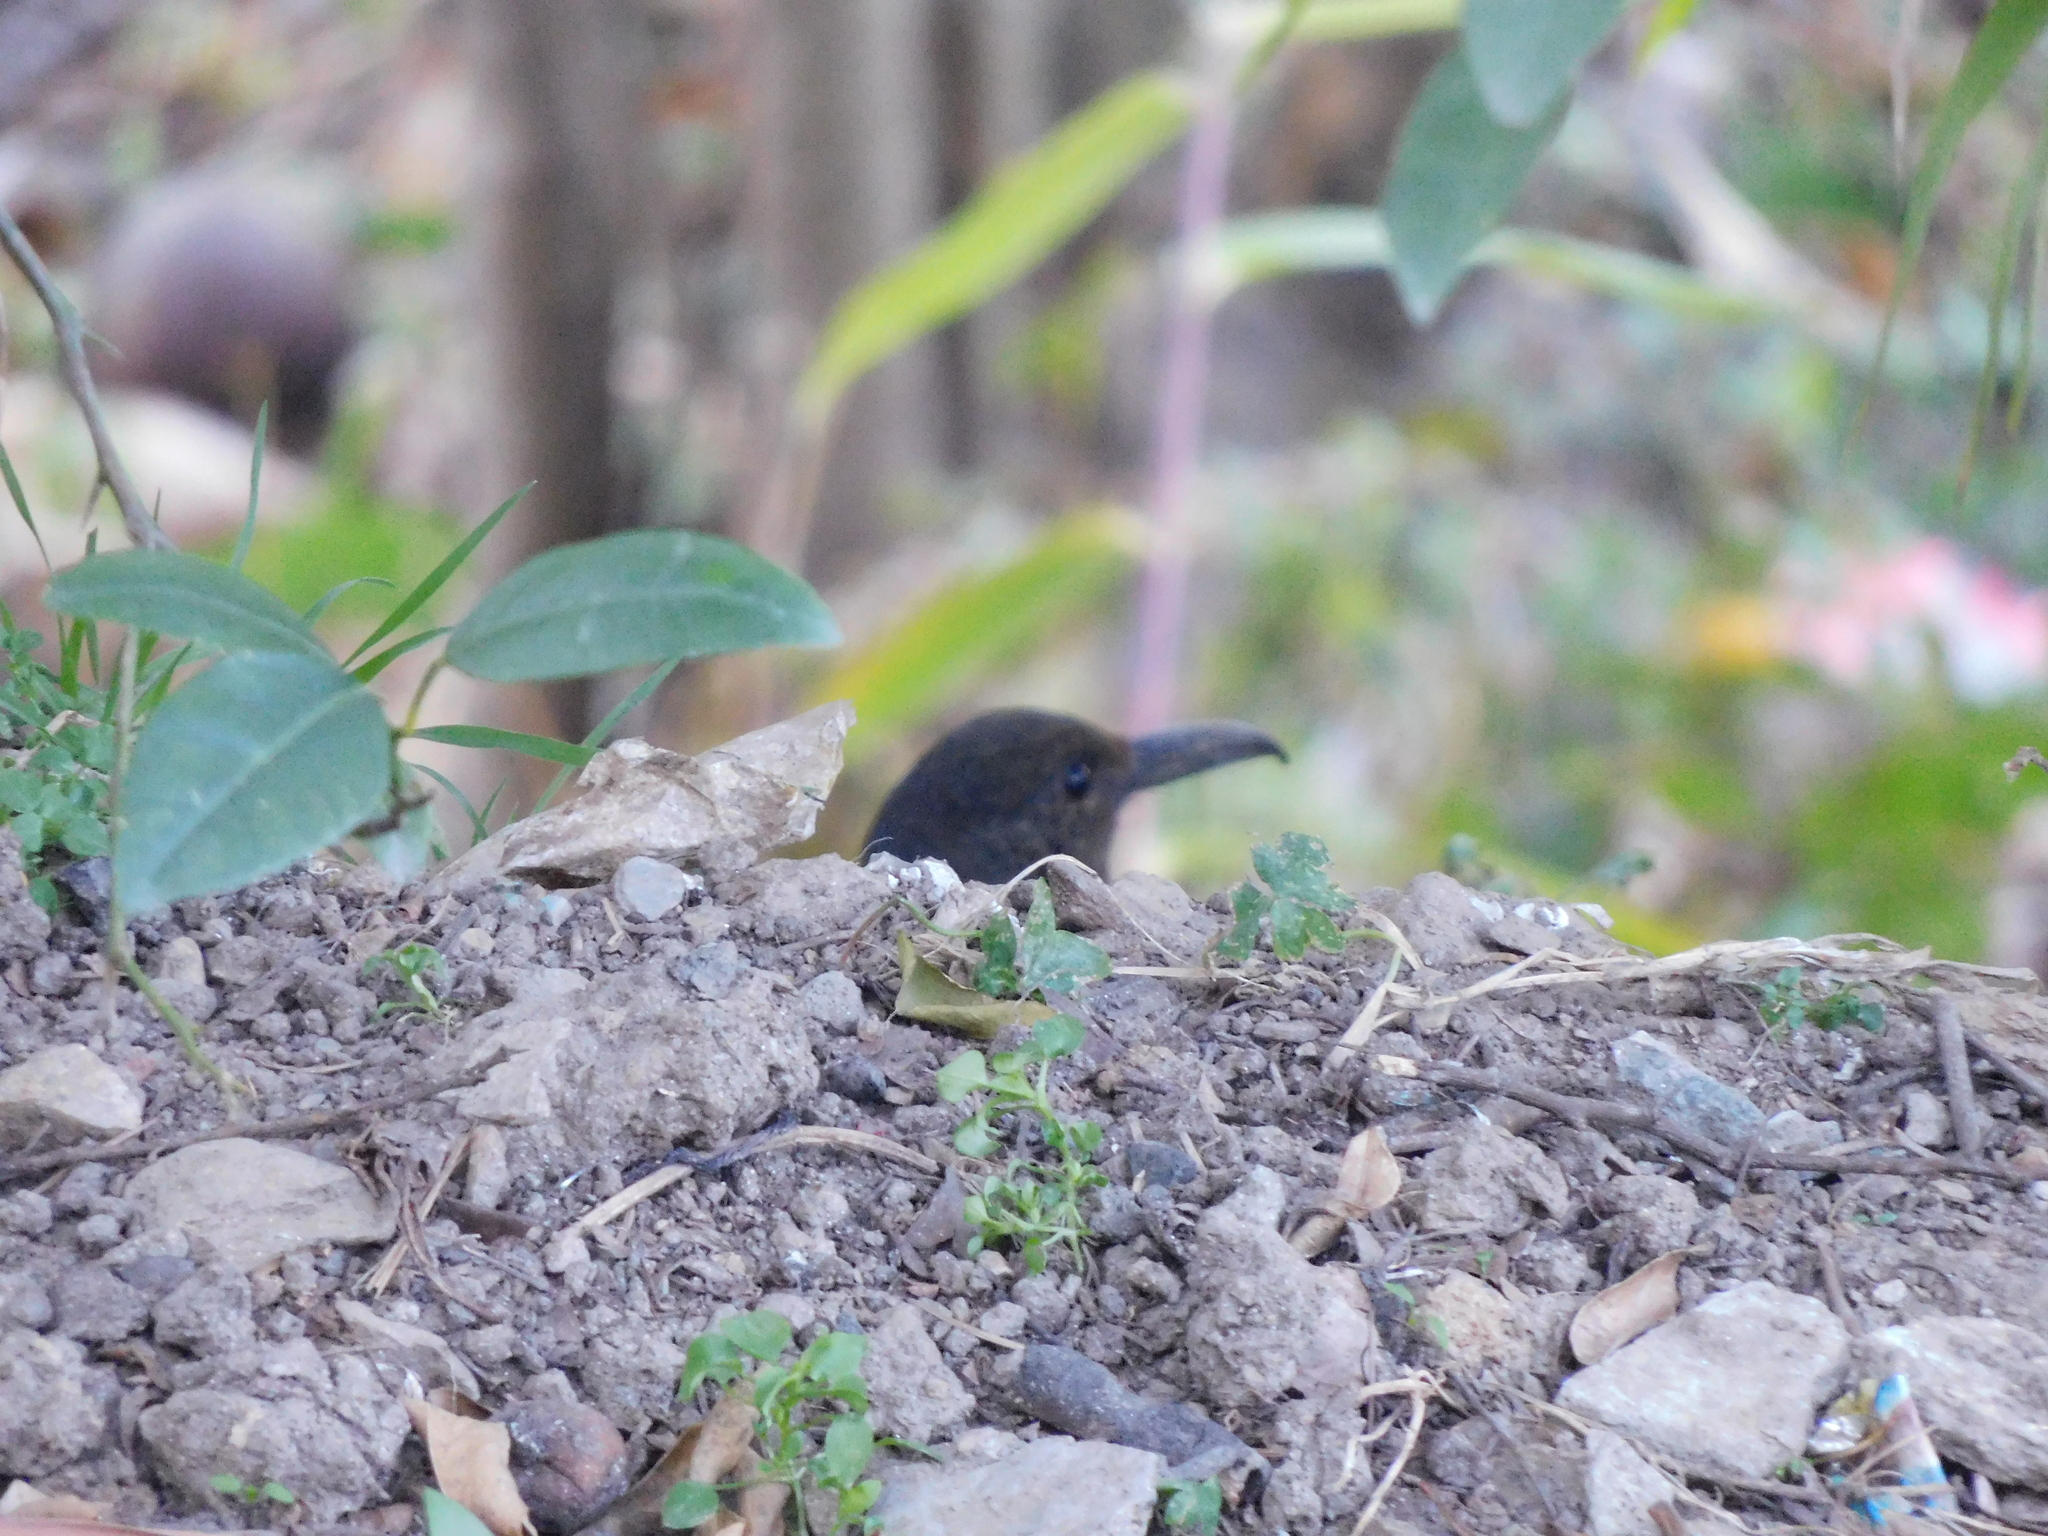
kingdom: Animalia
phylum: Chordata
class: Aves
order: Passeriformes
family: Turdidae
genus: Zoothera
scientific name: Zoothera monticola
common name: Long-billed thrush
